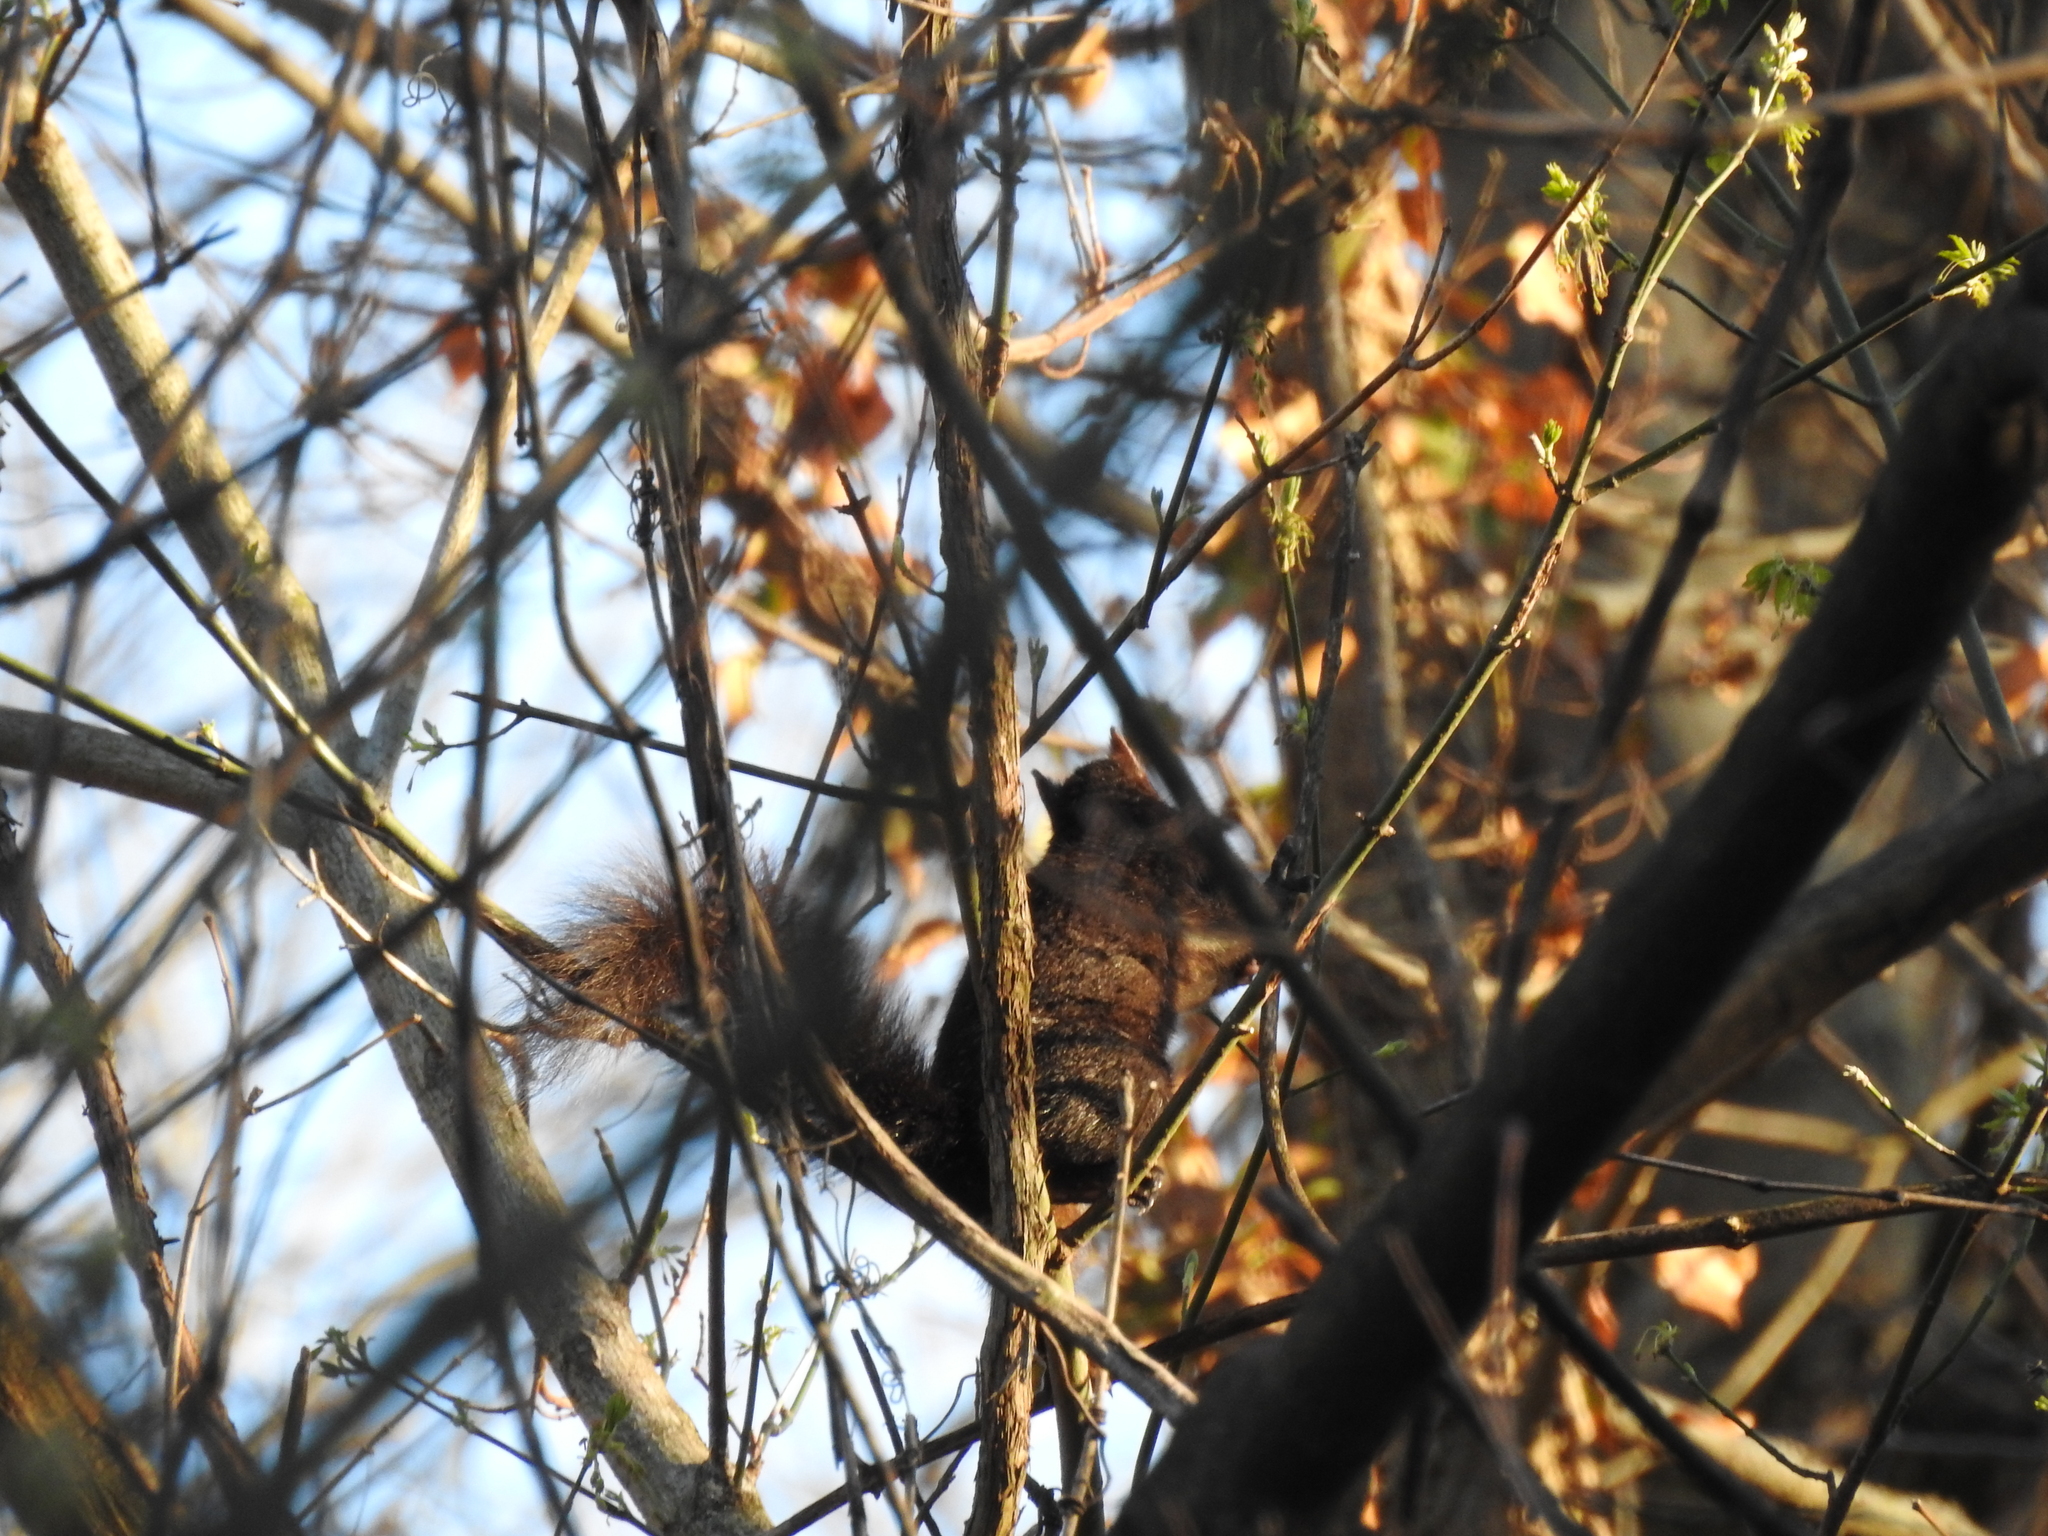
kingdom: Animalia
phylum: Chordata
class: Mammalia
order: Rodentia
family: Sciuridae
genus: Sciurus
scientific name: Sciurus carolinensis
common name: Eastern gray squirrel
